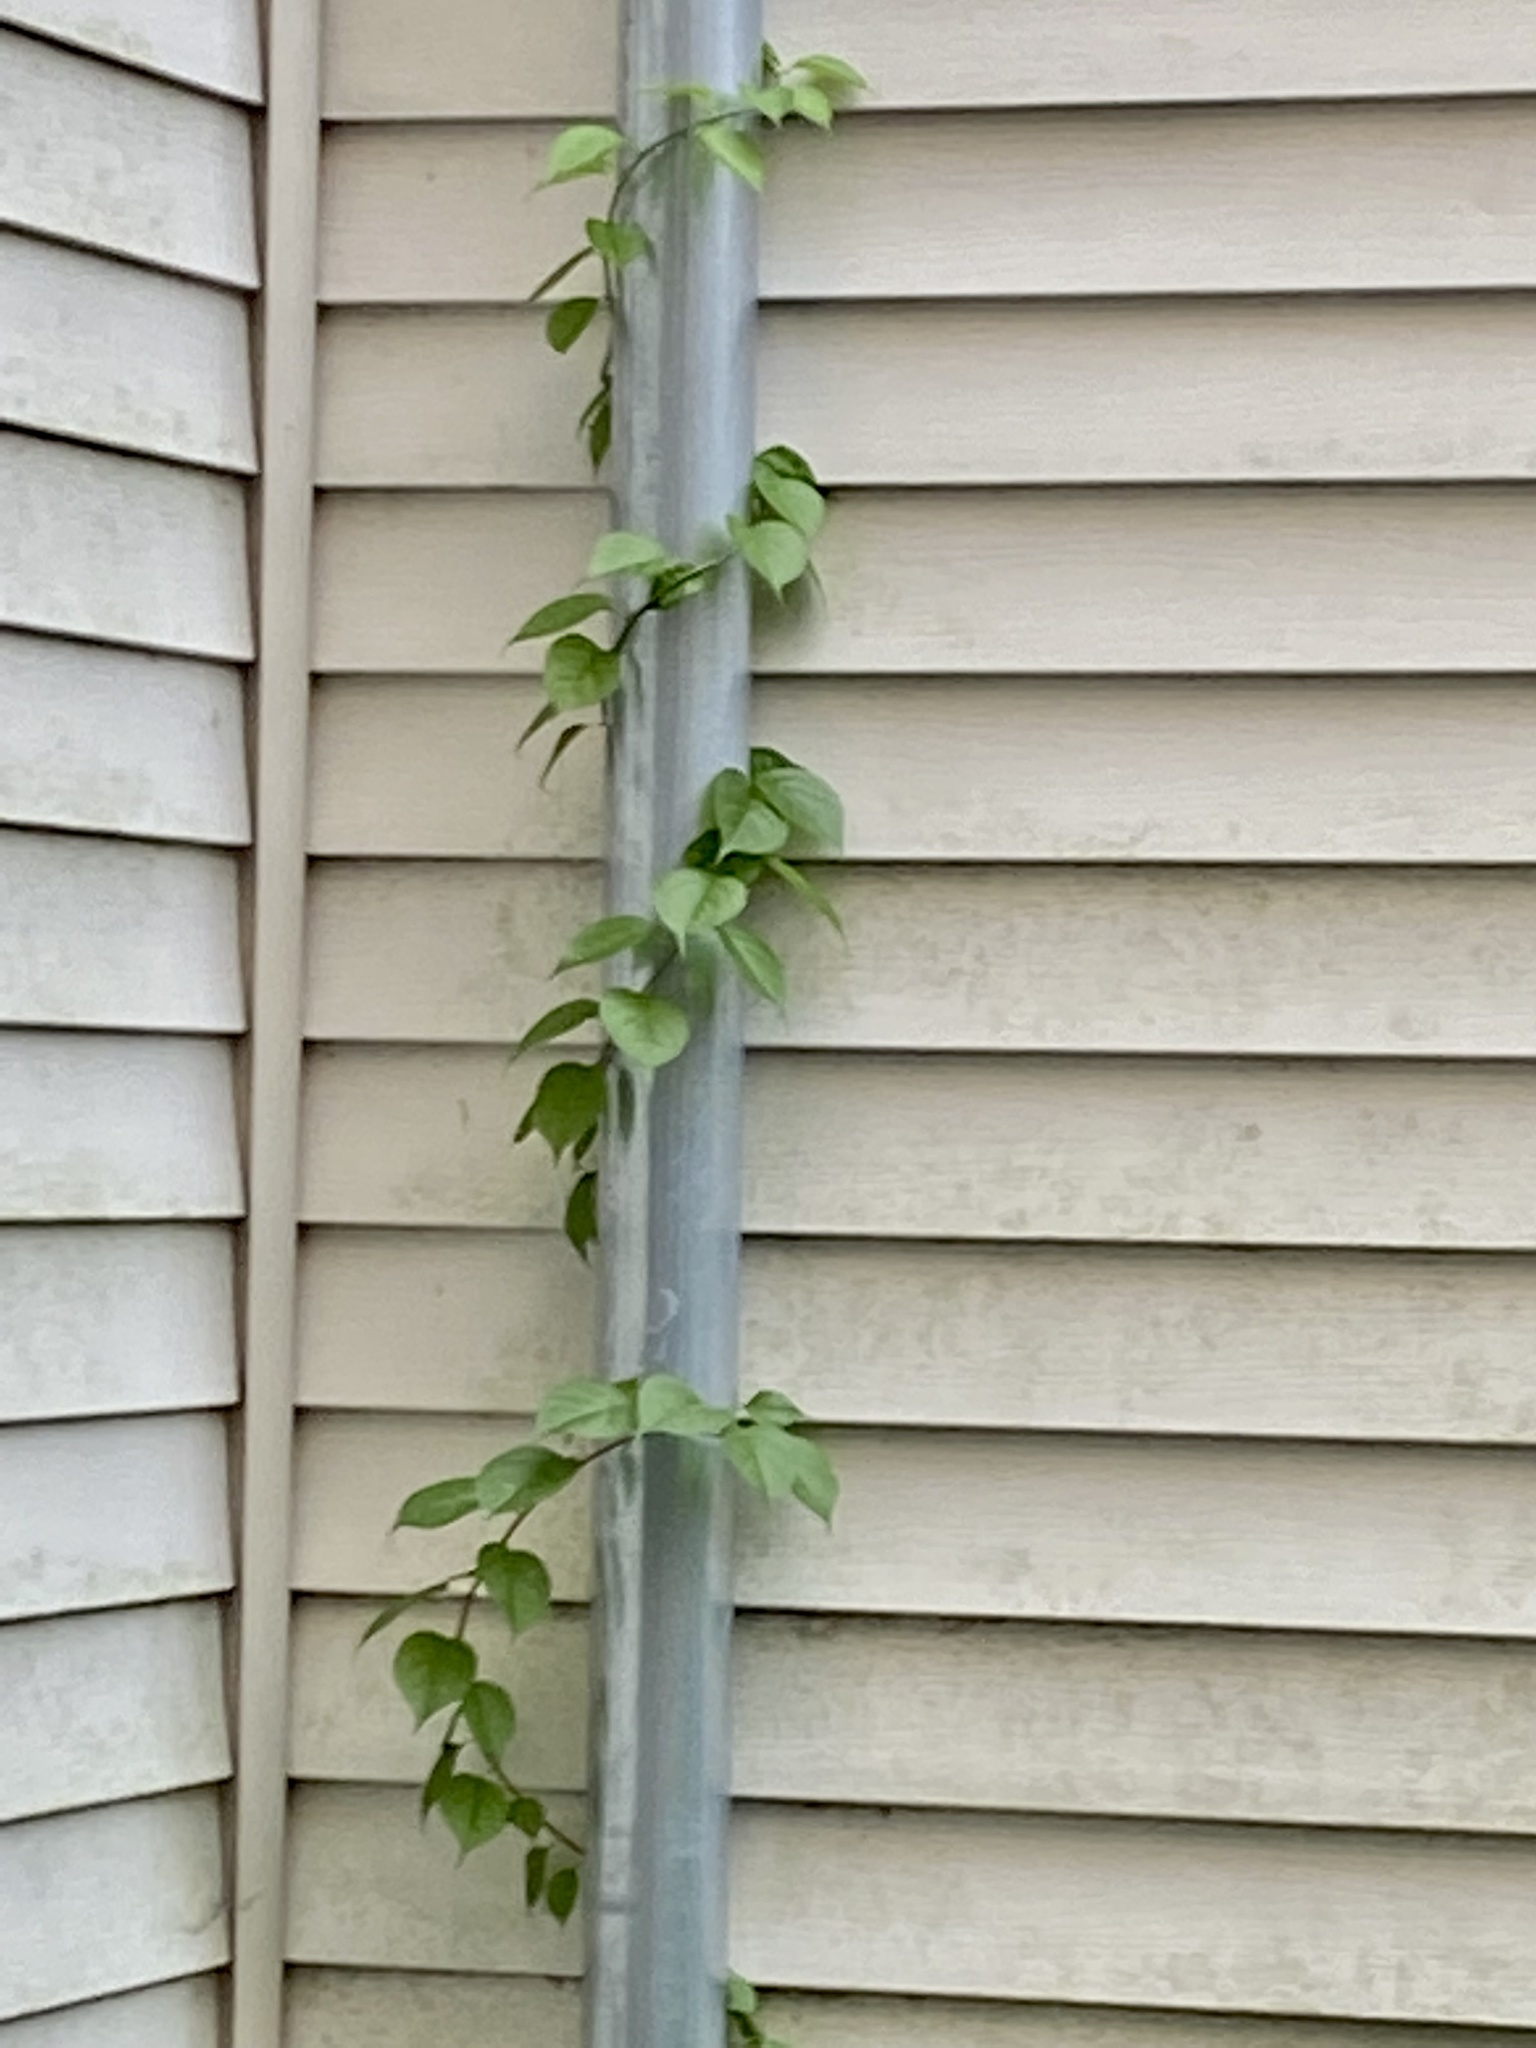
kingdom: Plantae
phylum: Tracheophyta
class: Magnoliopsida
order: Celastrales
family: Celastraceae
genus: Celastrus
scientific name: Celastrus orbiculatus
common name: Oriental bittersweet
